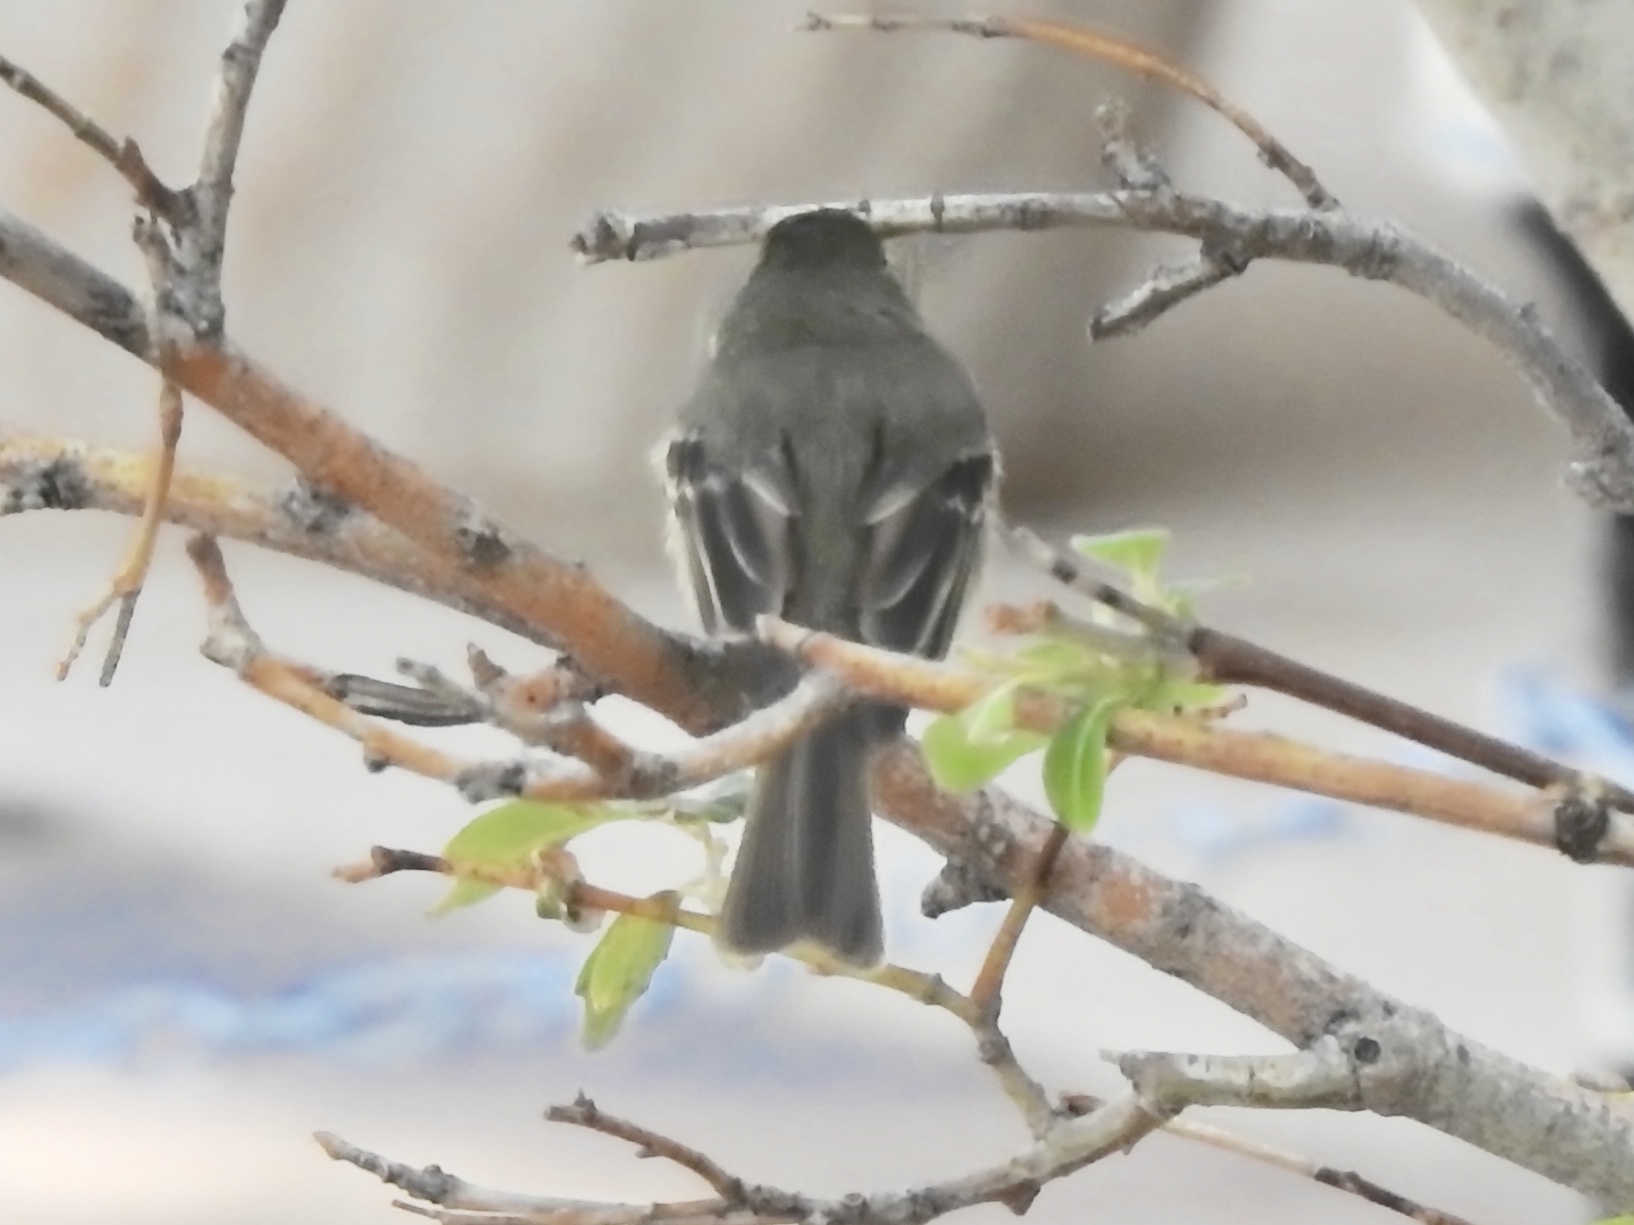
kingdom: Animalia
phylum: Chordata
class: Aves
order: Passeriformes
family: Tyrannidae
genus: Empidonax
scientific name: Empidonax
